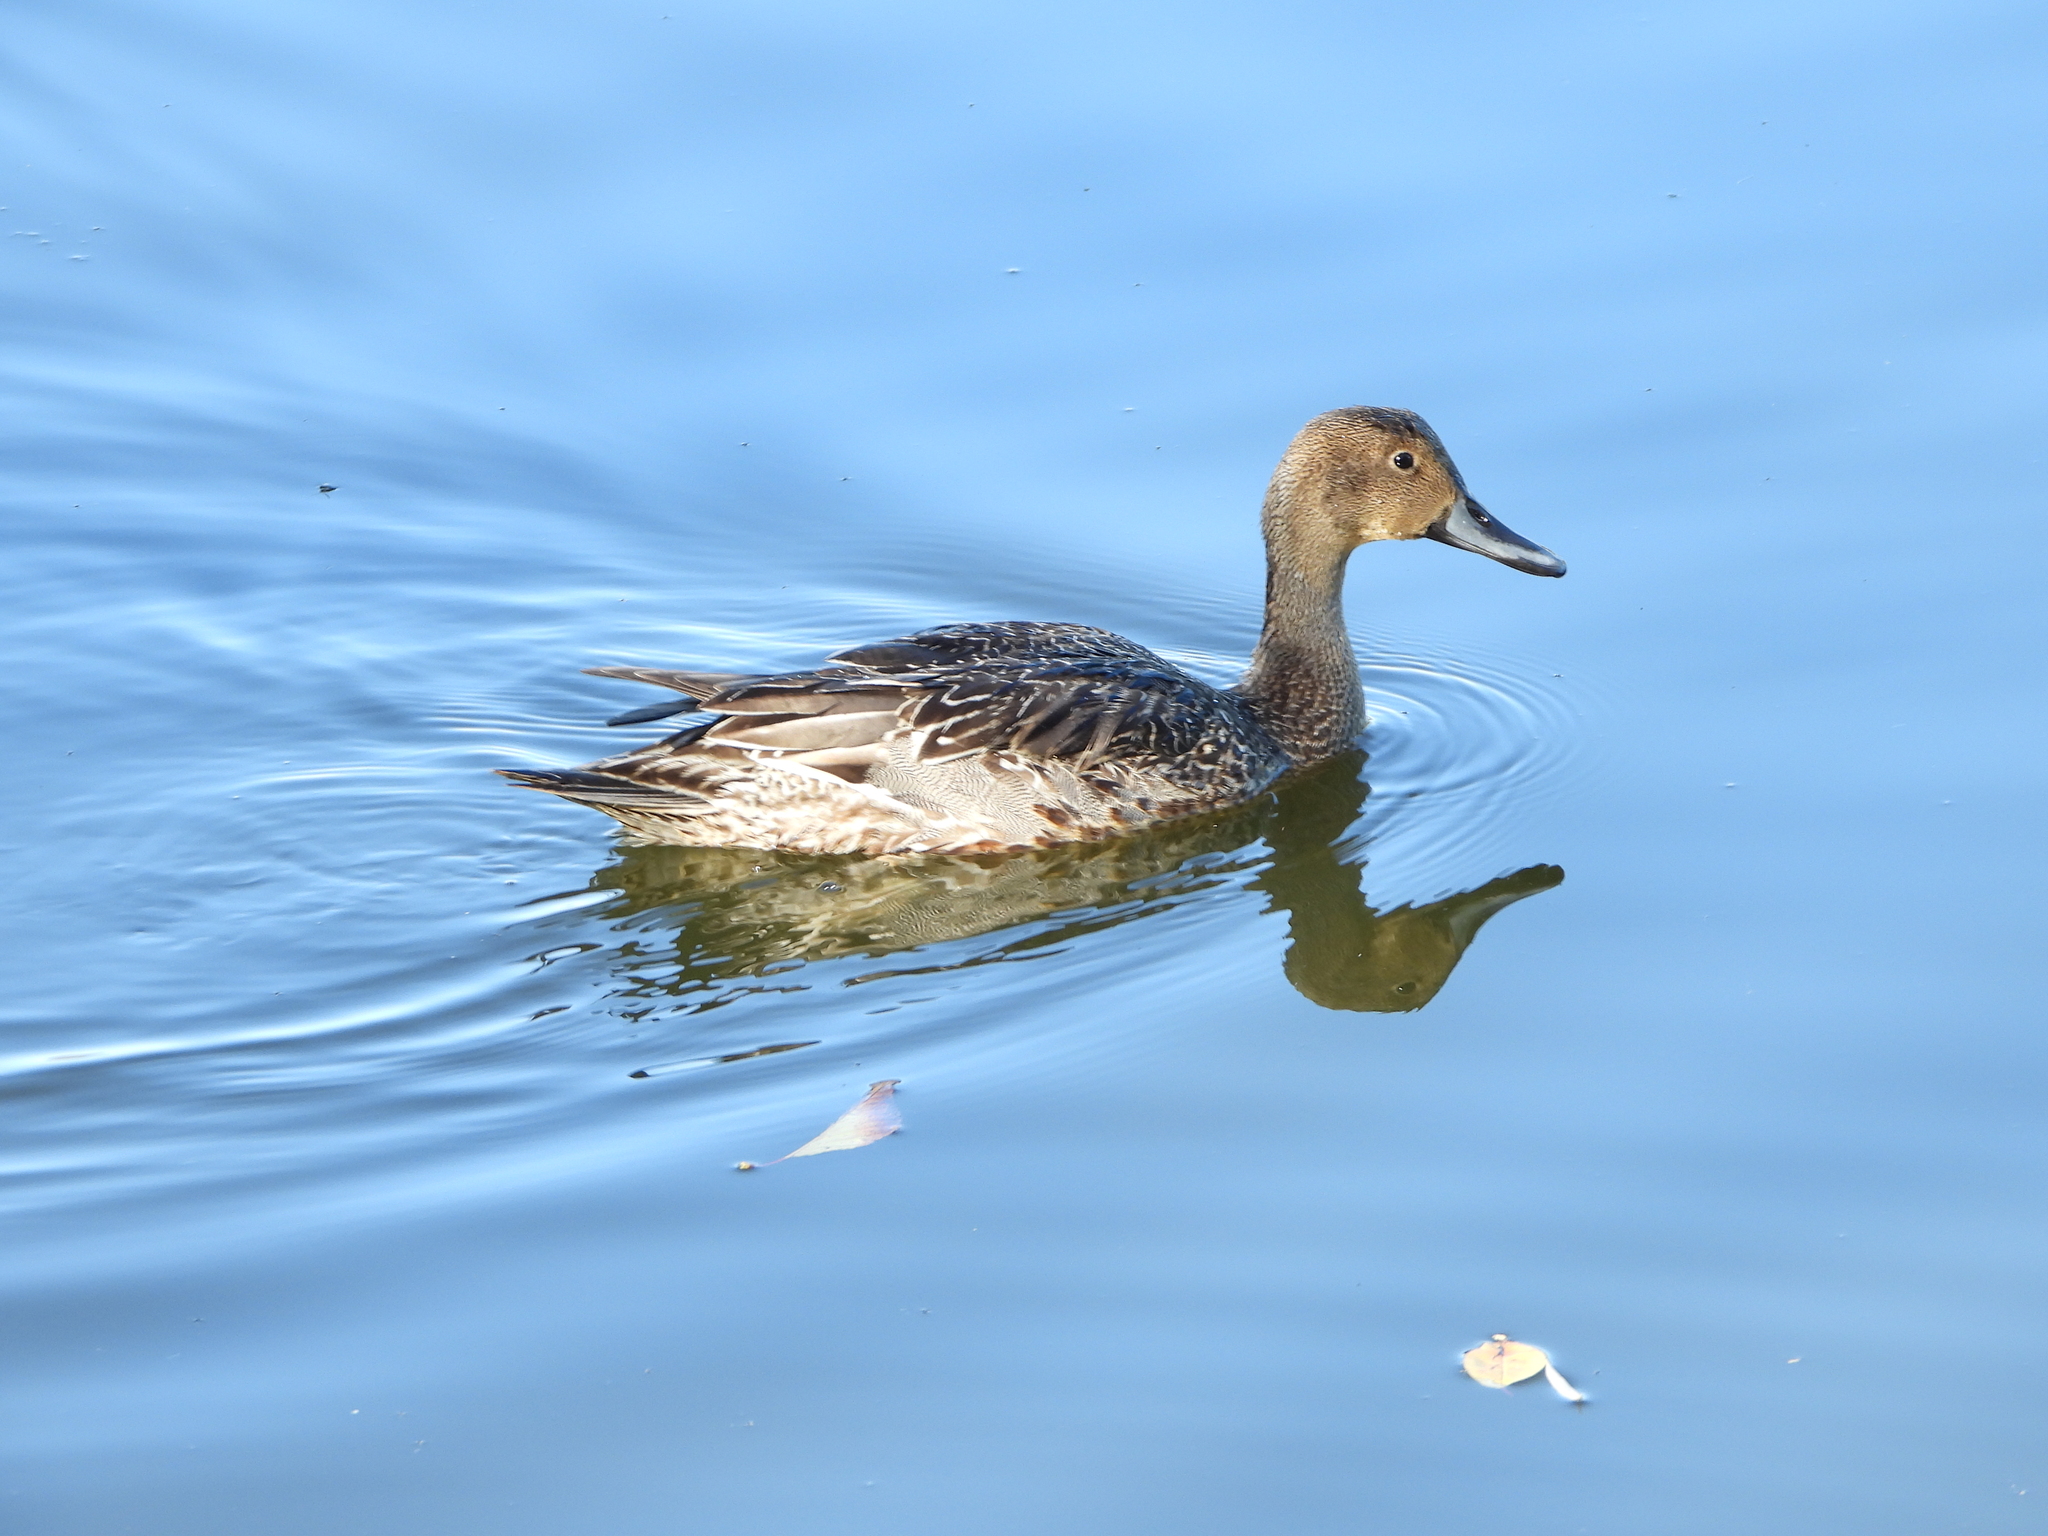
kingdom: Animalia
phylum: Chordata
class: Aves
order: Anseriformes
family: Anatidae
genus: Anas
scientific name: Anas acuta
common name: Northern pintail
